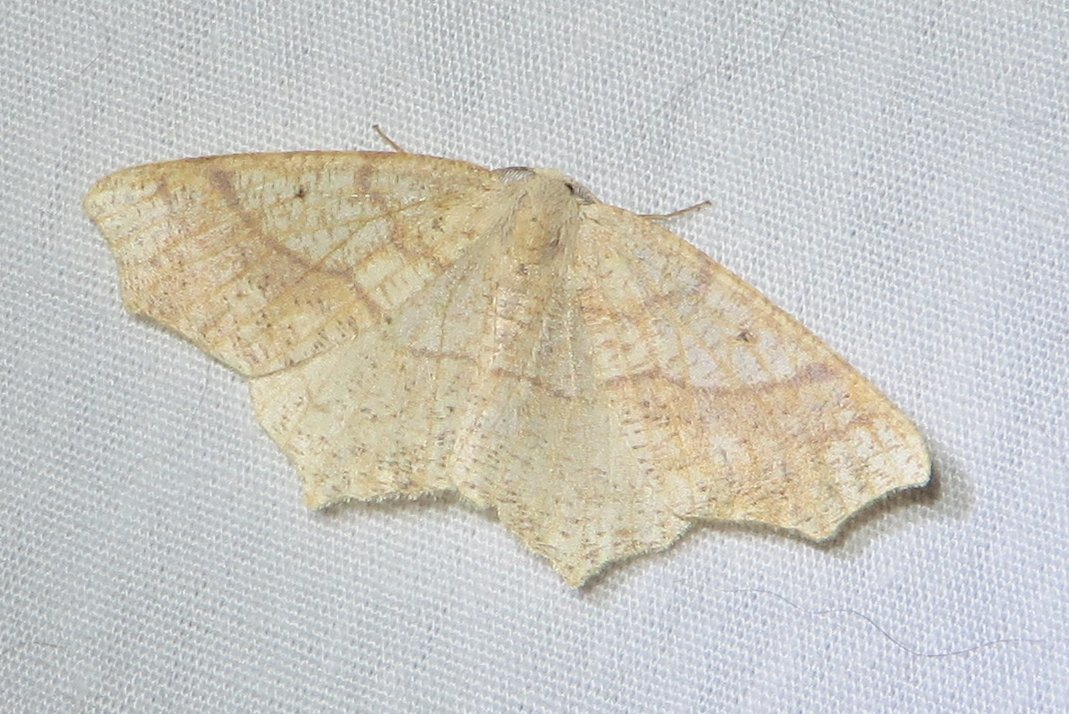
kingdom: Animalia
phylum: Arthropoda
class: Insecta
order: Lepidoptera
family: Geometridae
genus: Besma
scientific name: Besma quercivoraria
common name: Oak besma
